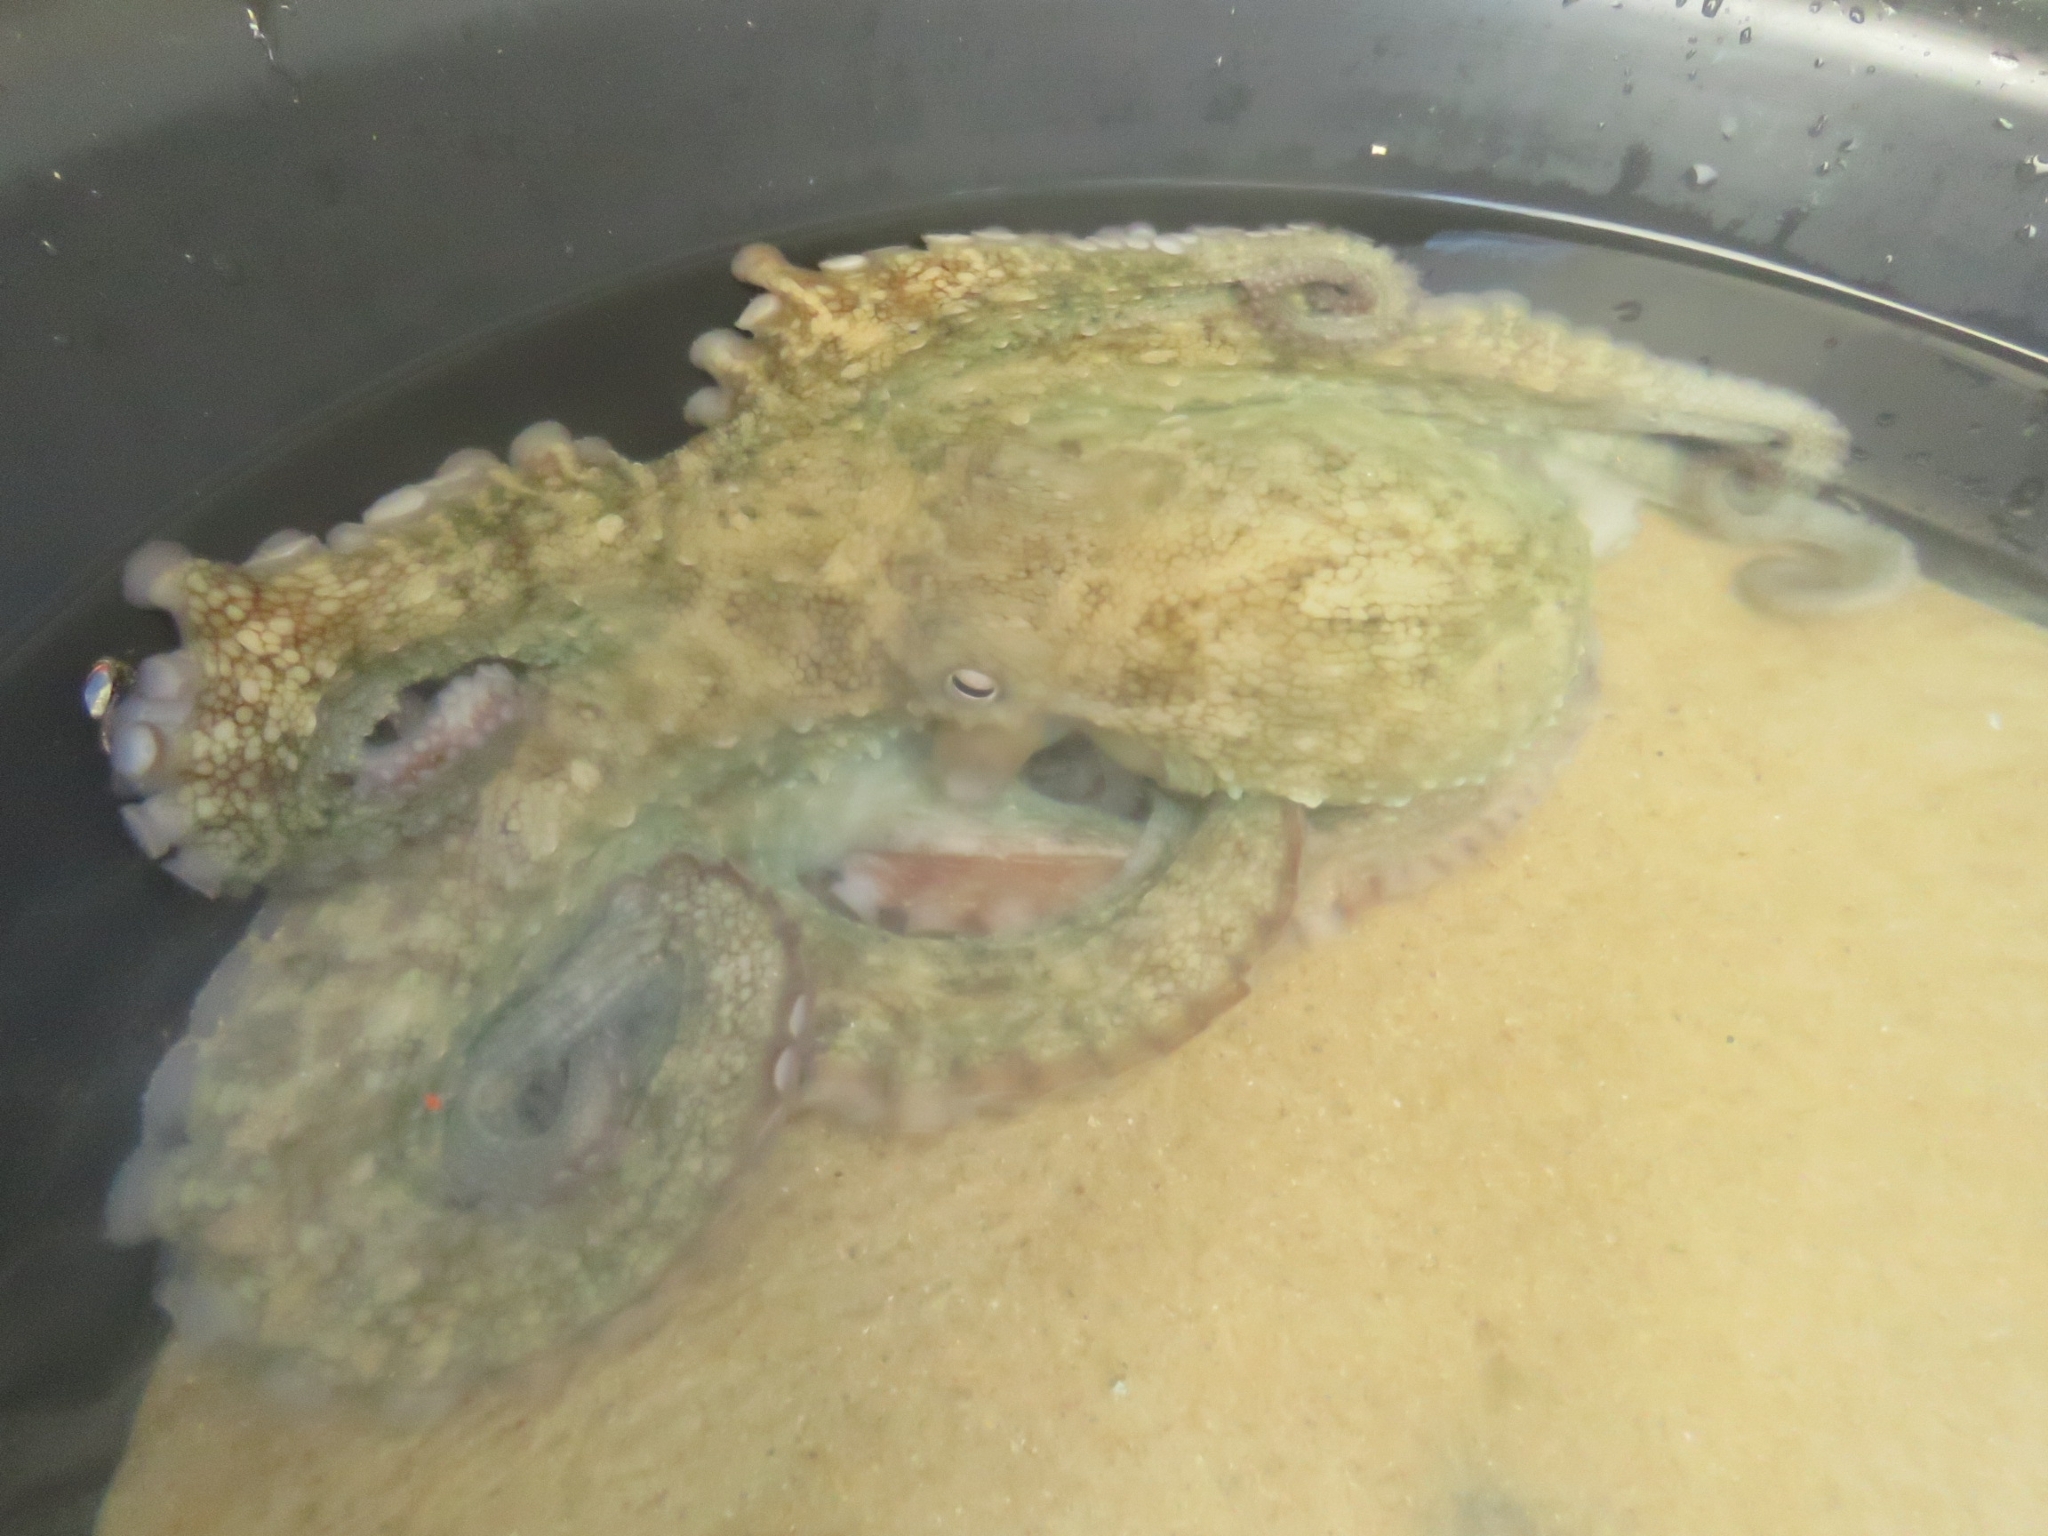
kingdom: Animalia
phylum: Mollusca
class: Cephalopoda
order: Octopoda
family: Octopodidae
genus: Octopus
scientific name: Octopus vulgaris
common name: Common octopus
